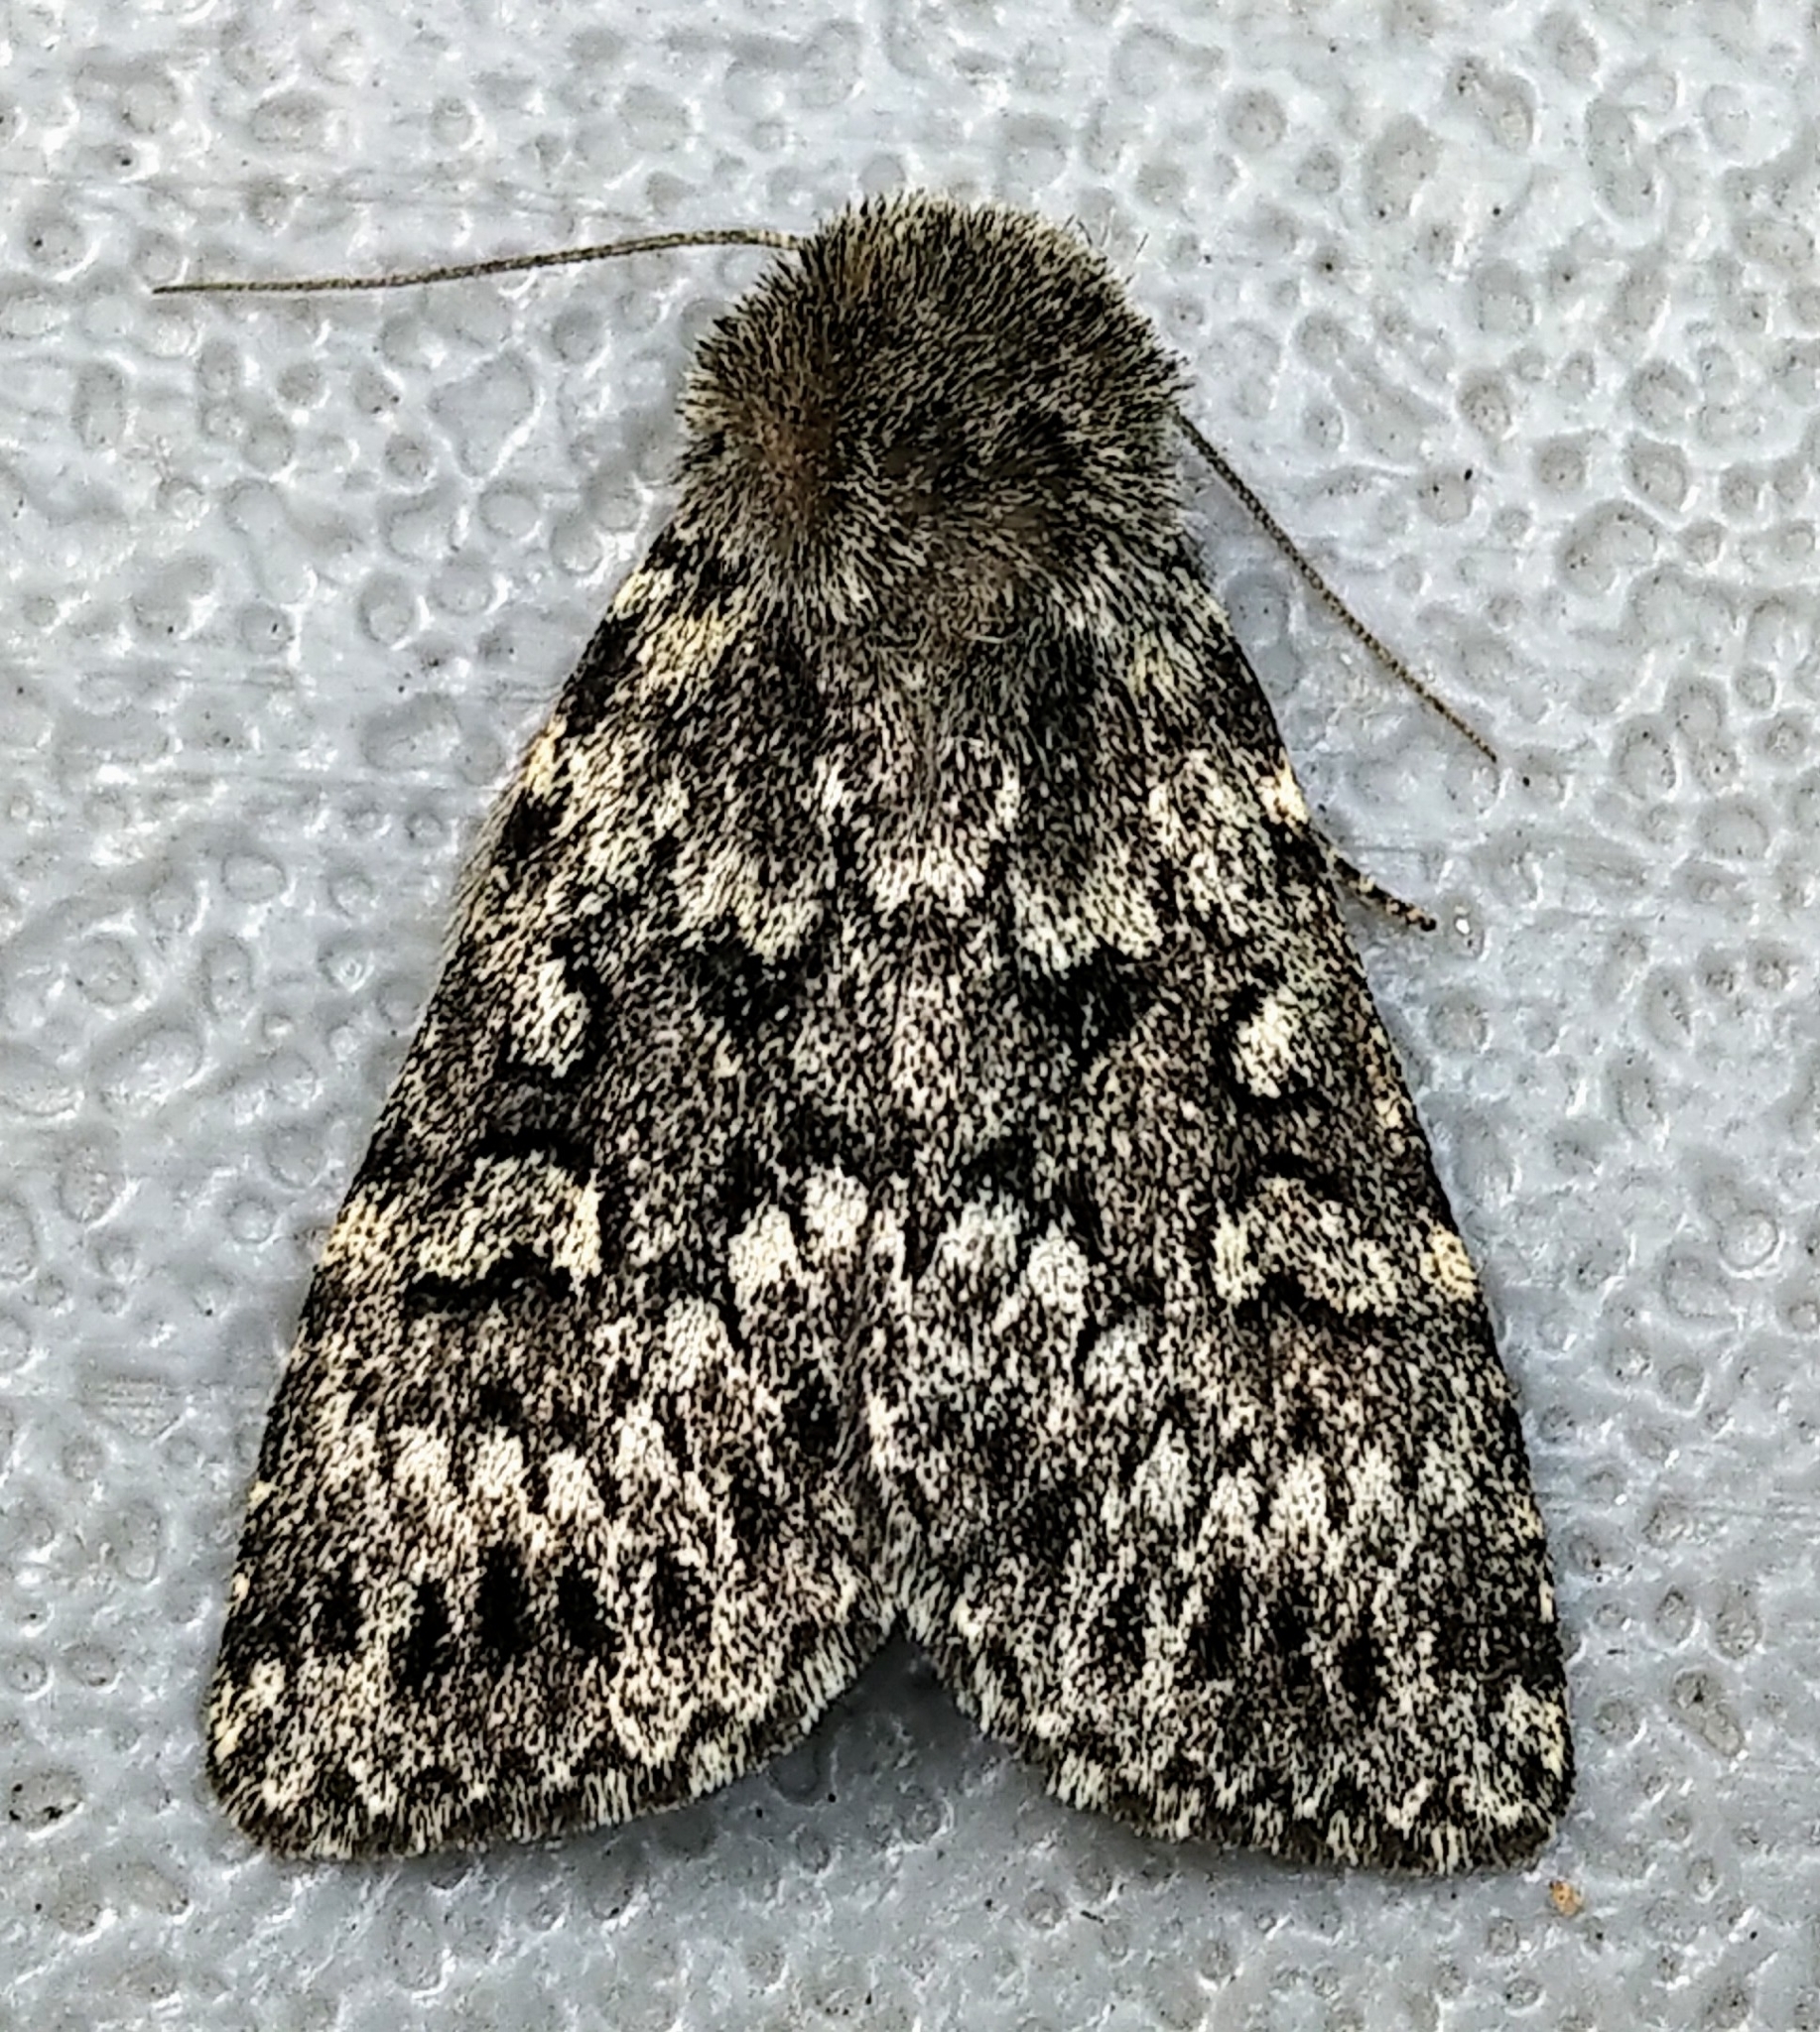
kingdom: Animalia
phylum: Arthropoda
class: Insecta
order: Lepidoptera
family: Noctuidae
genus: Xestia
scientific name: Xestia perquiritata
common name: Boomerang dart
